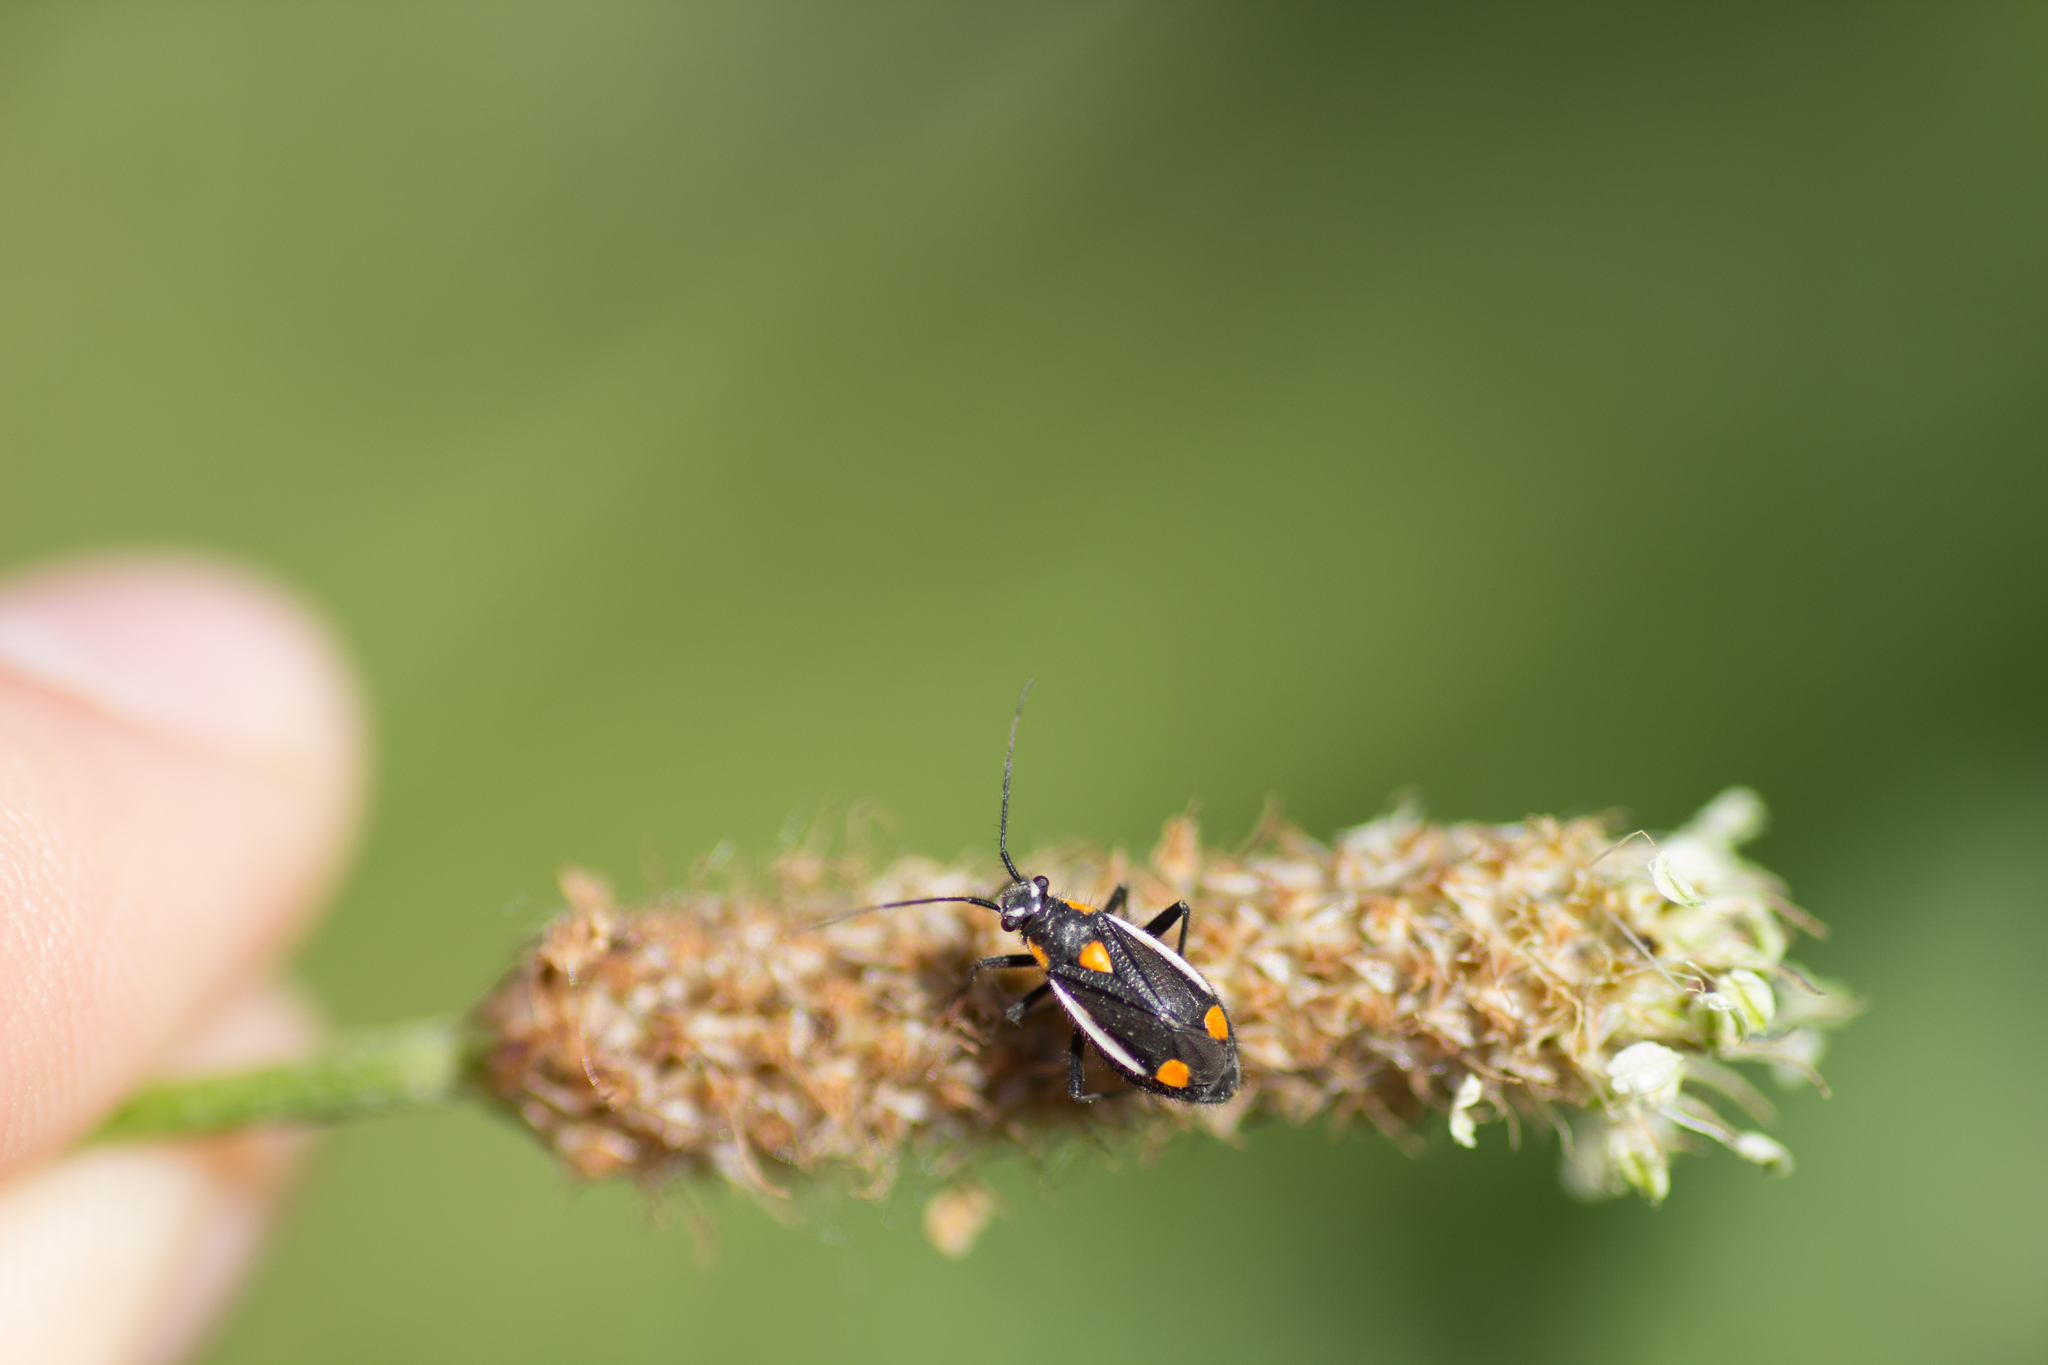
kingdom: Animalia
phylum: Arthropoda
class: Insecta
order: Hemiptera
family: Miridae
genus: Capsodes
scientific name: Capsodes gothicus
